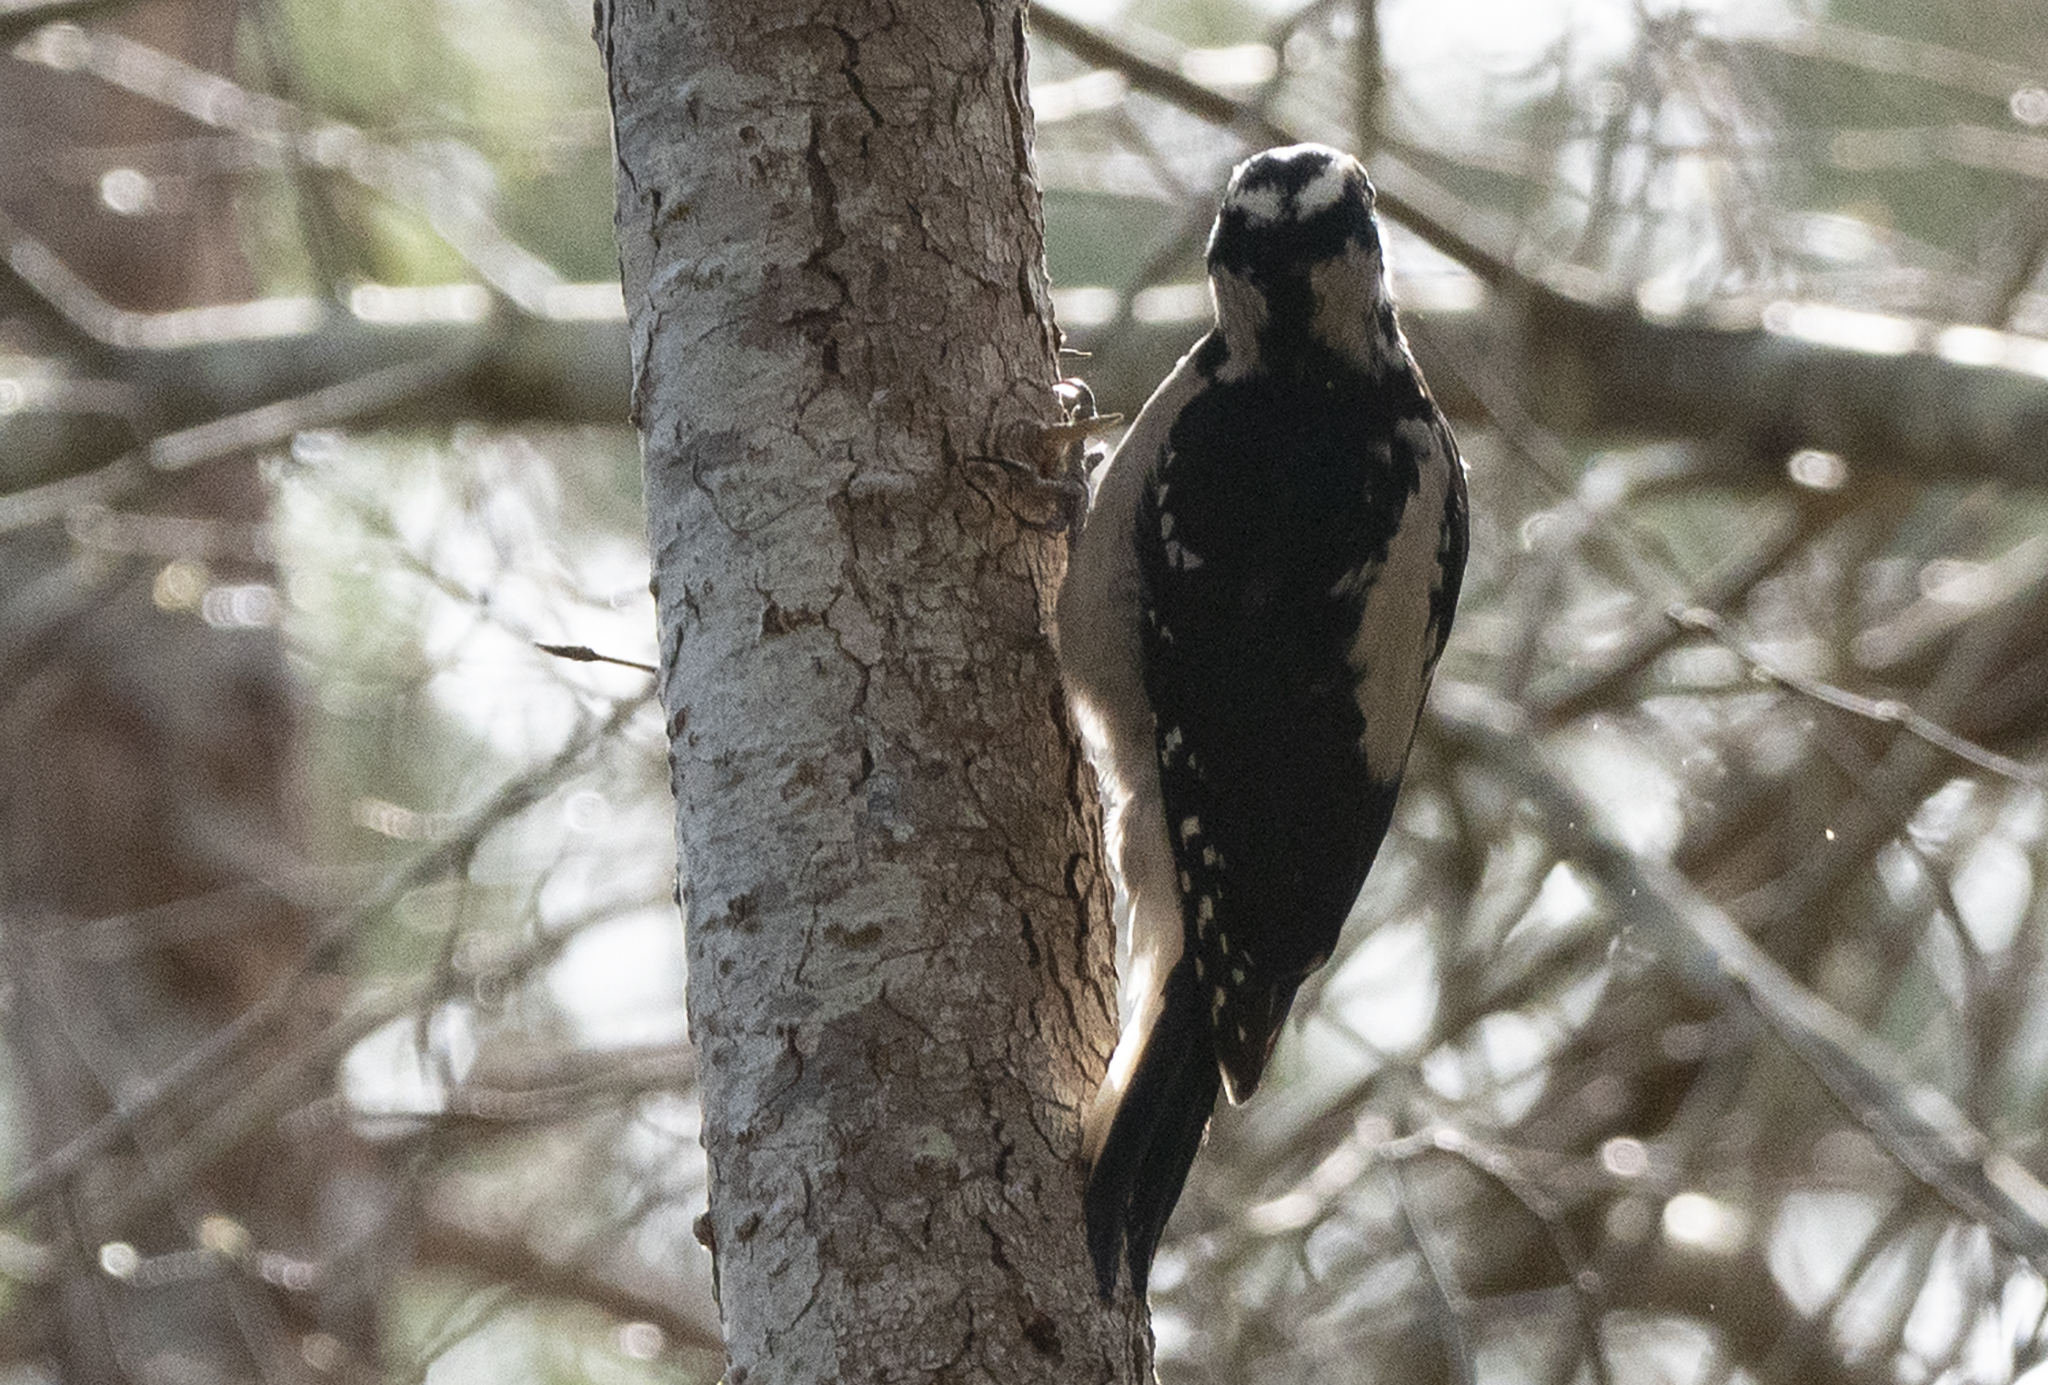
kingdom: Animalia
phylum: Chordata
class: Aves
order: Piciformes
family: Picidae
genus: Leuconotopicus
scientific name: Leuconotopicus villosus
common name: Hairy woodpecker
